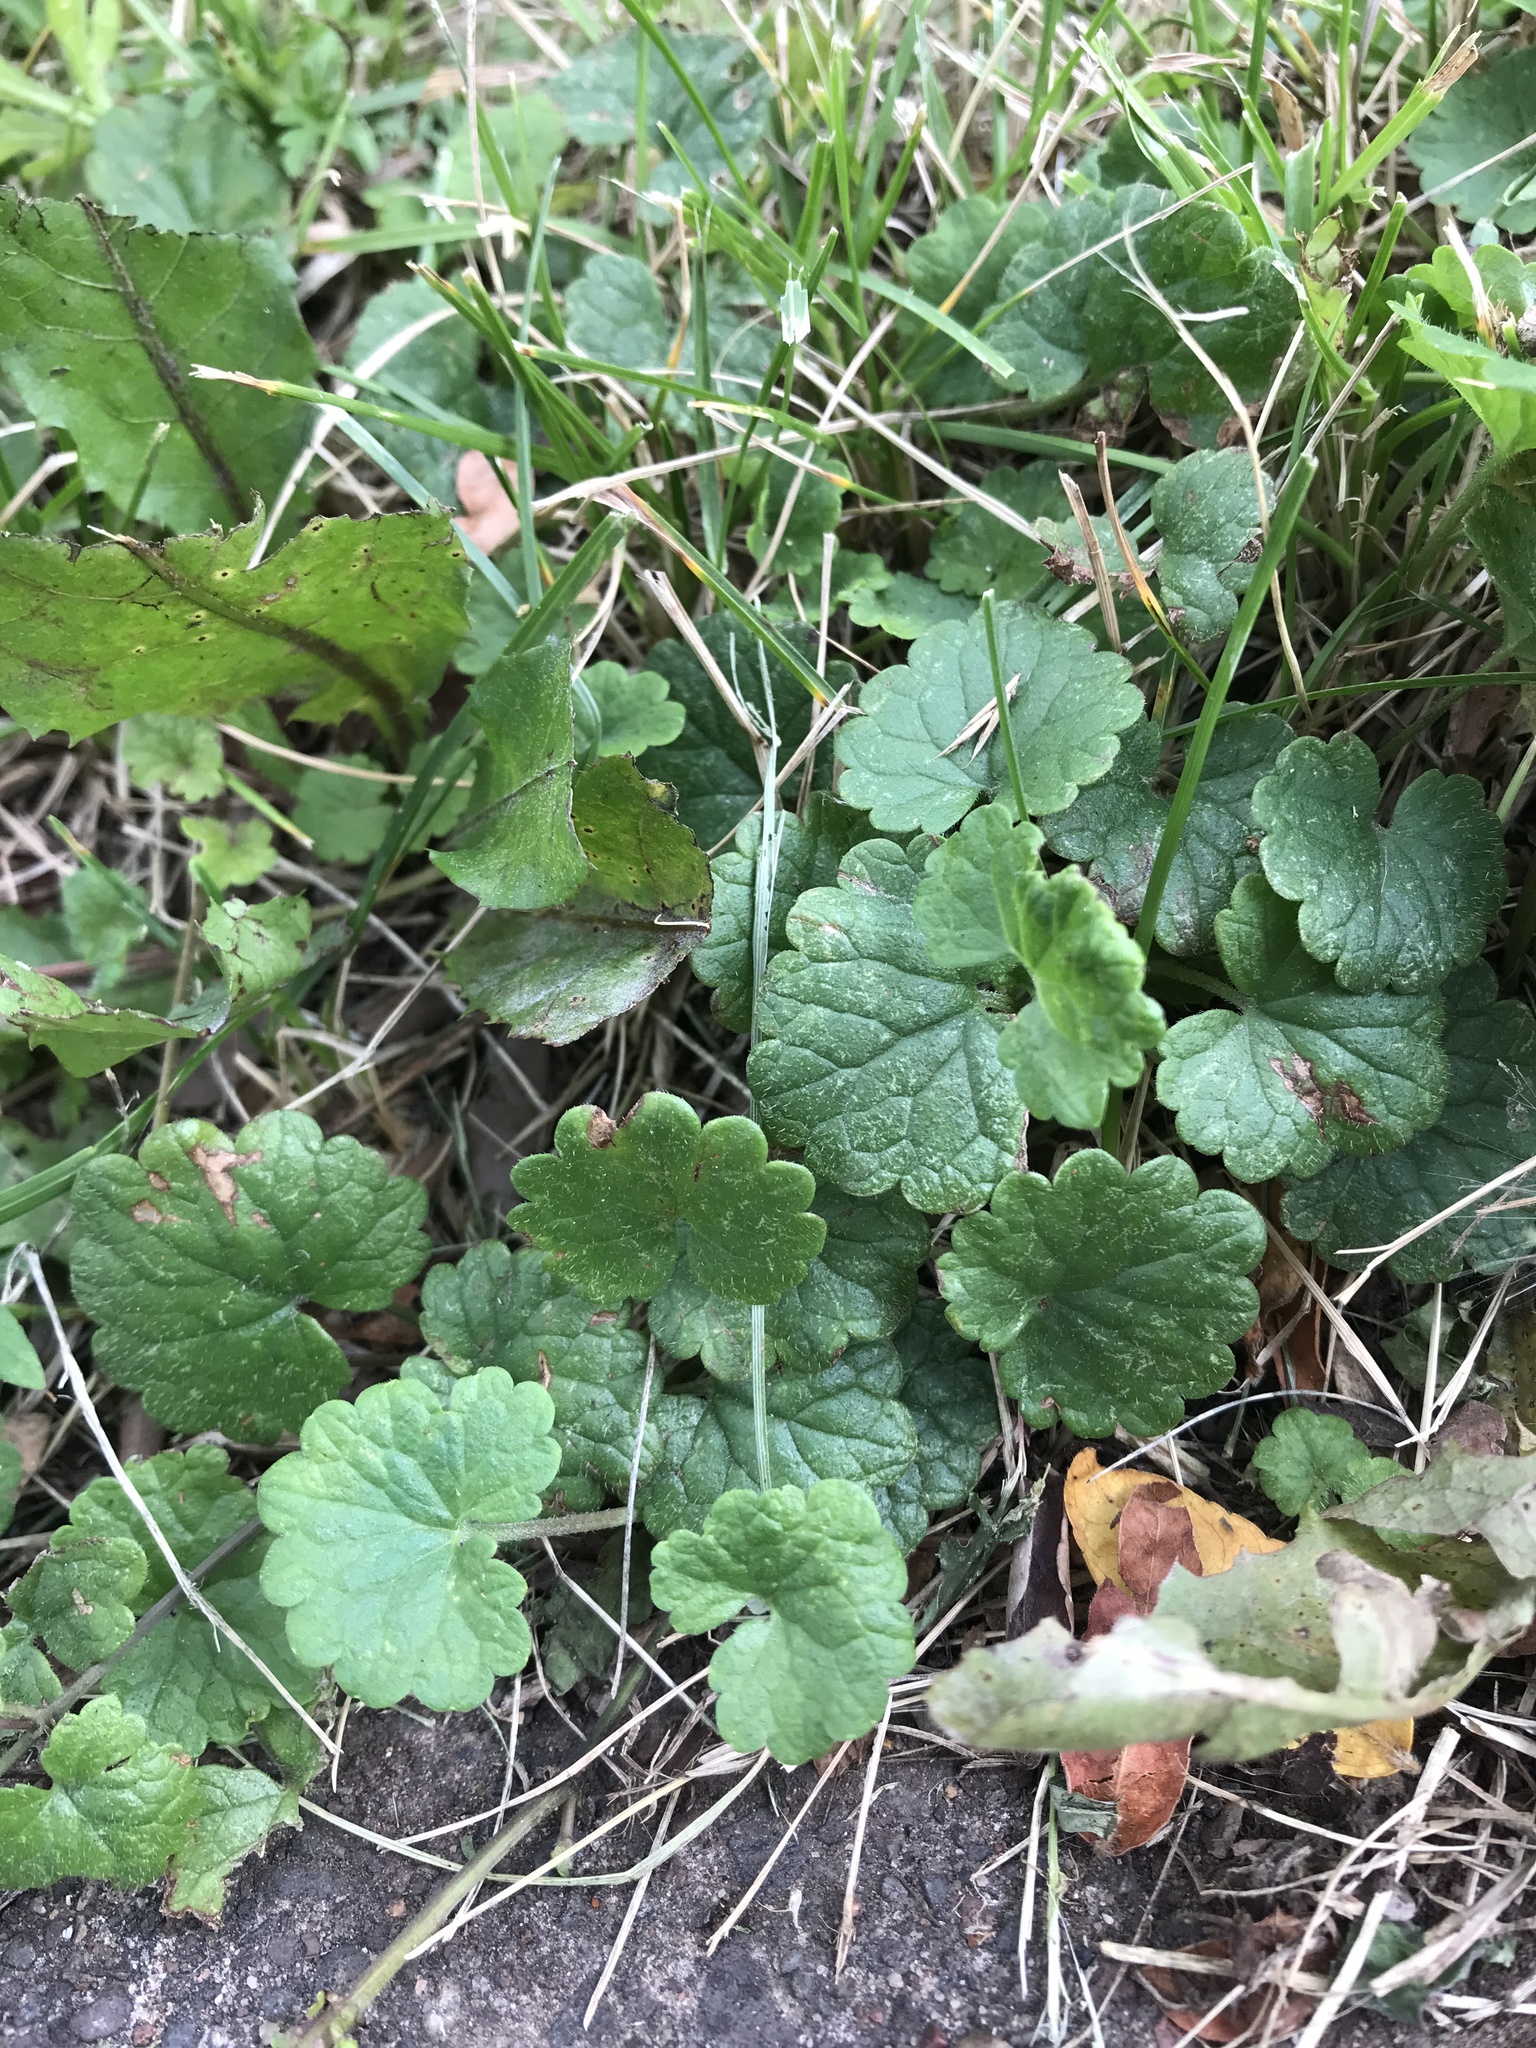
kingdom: Plantae
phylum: Tracheophyta
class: Magnoliopsida
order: Lamiales
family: Lamiaceae
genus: Glechoma
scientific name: Glechoma hederacea
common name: Ground ivy
